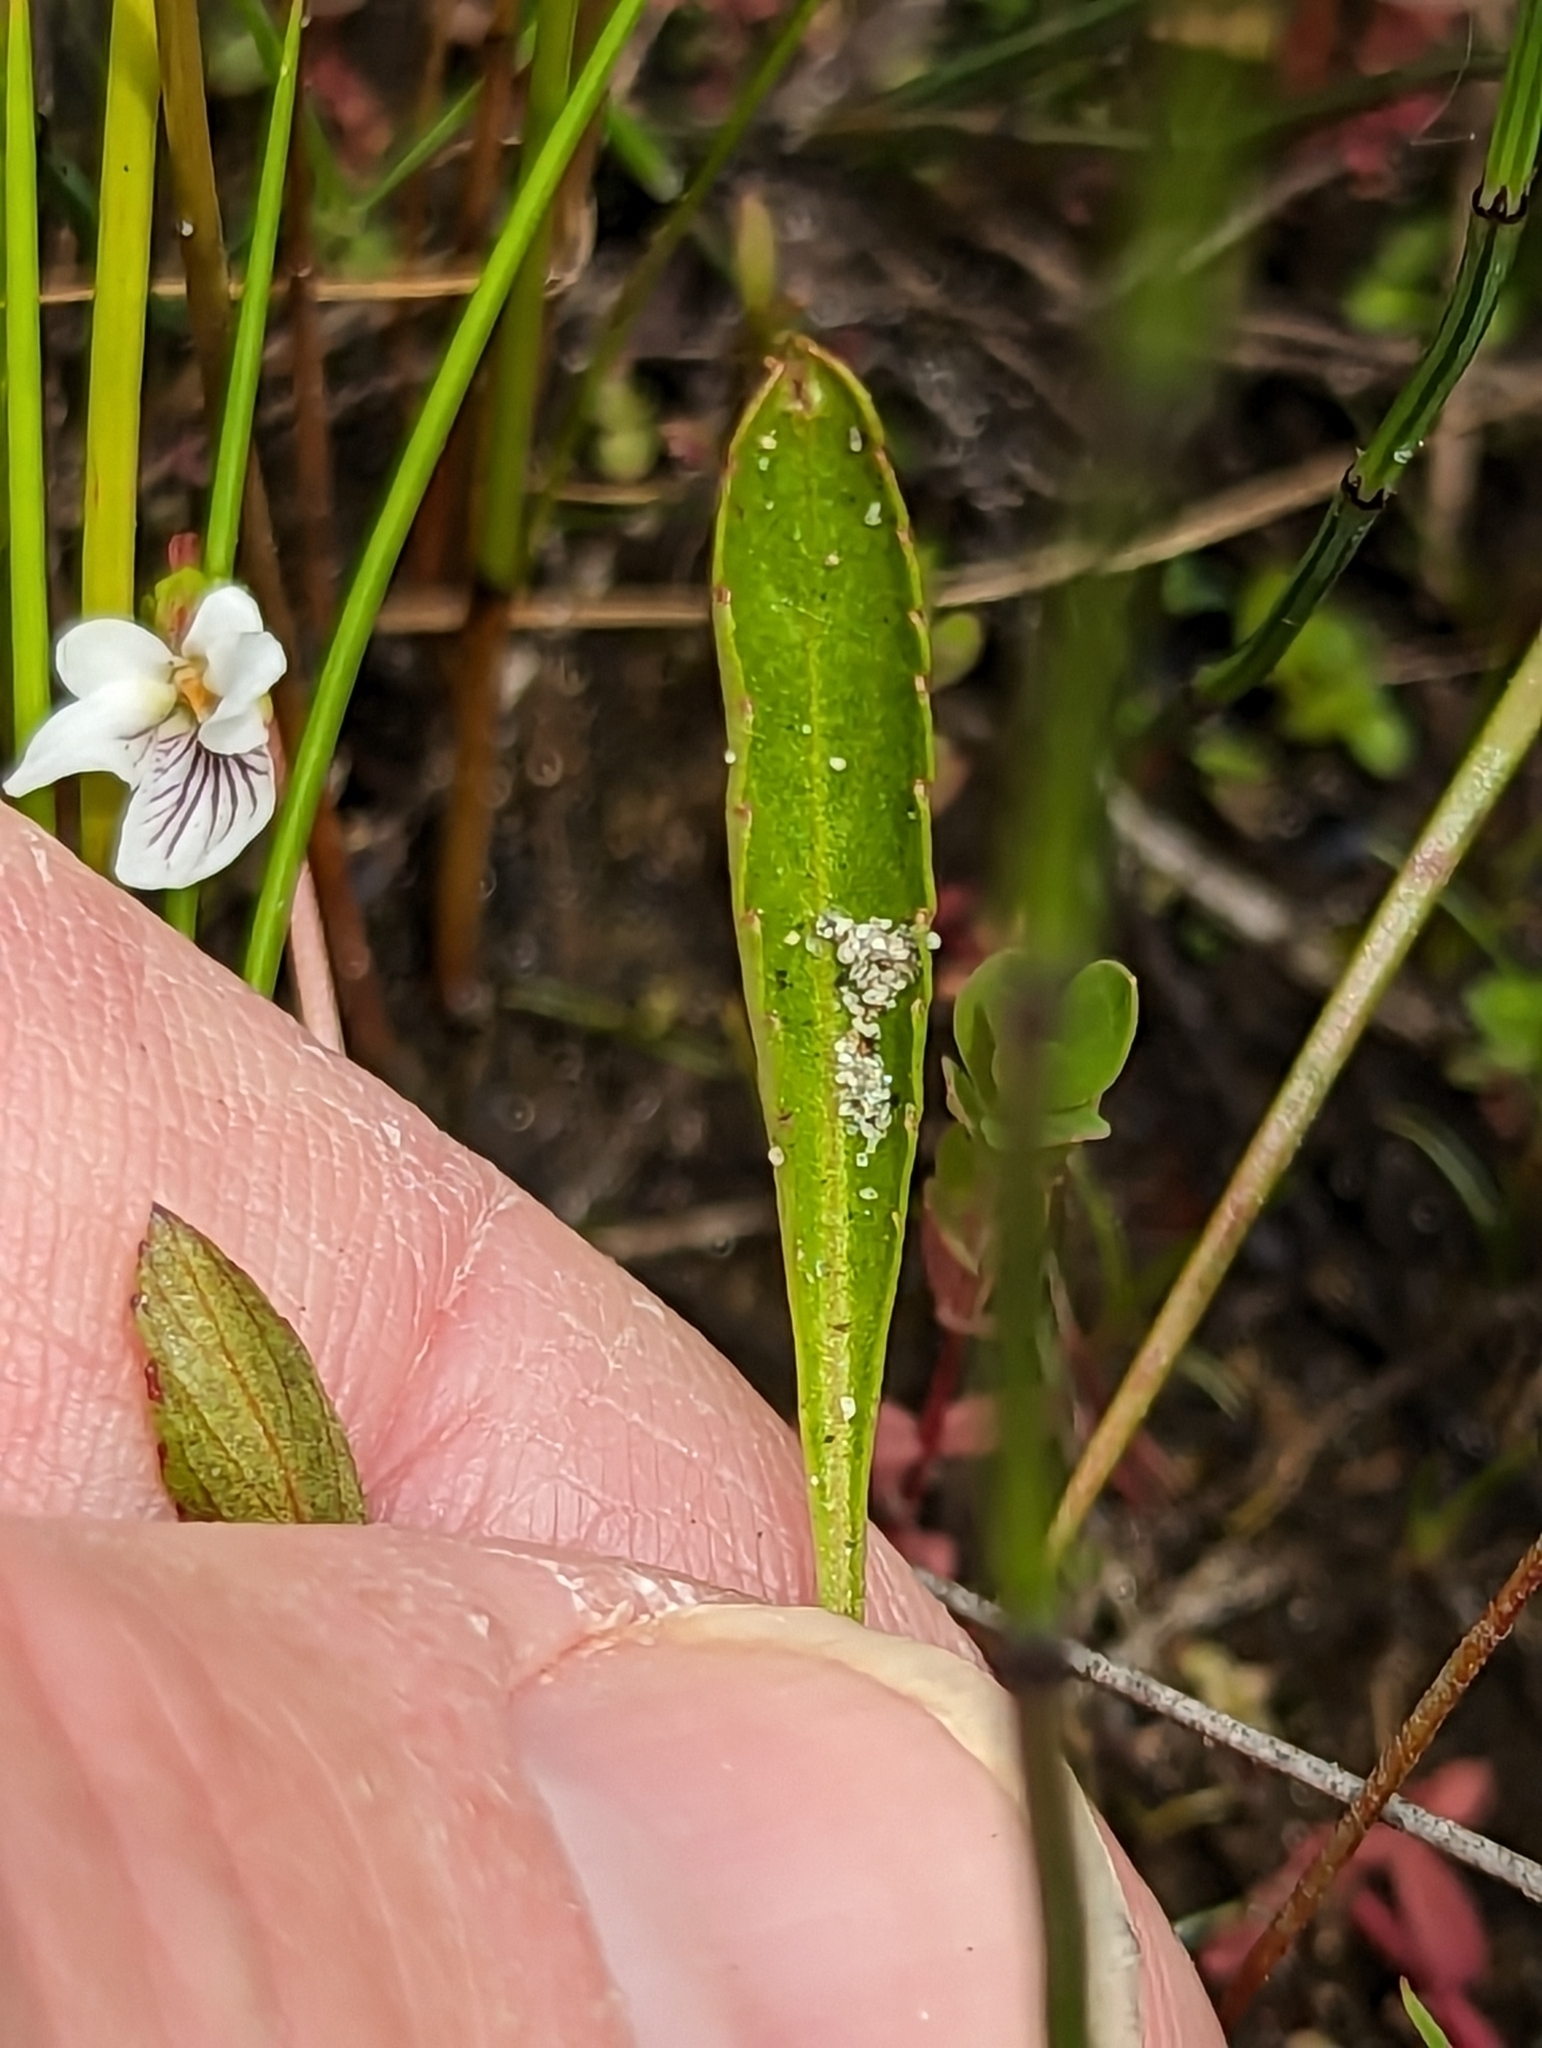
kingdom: Plantae
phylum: Tracheophyta
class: Magnoliopsida
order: Malpighiales
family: Violaceae
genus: Viola
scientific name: Viola lanceolata
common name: Bog white violet
